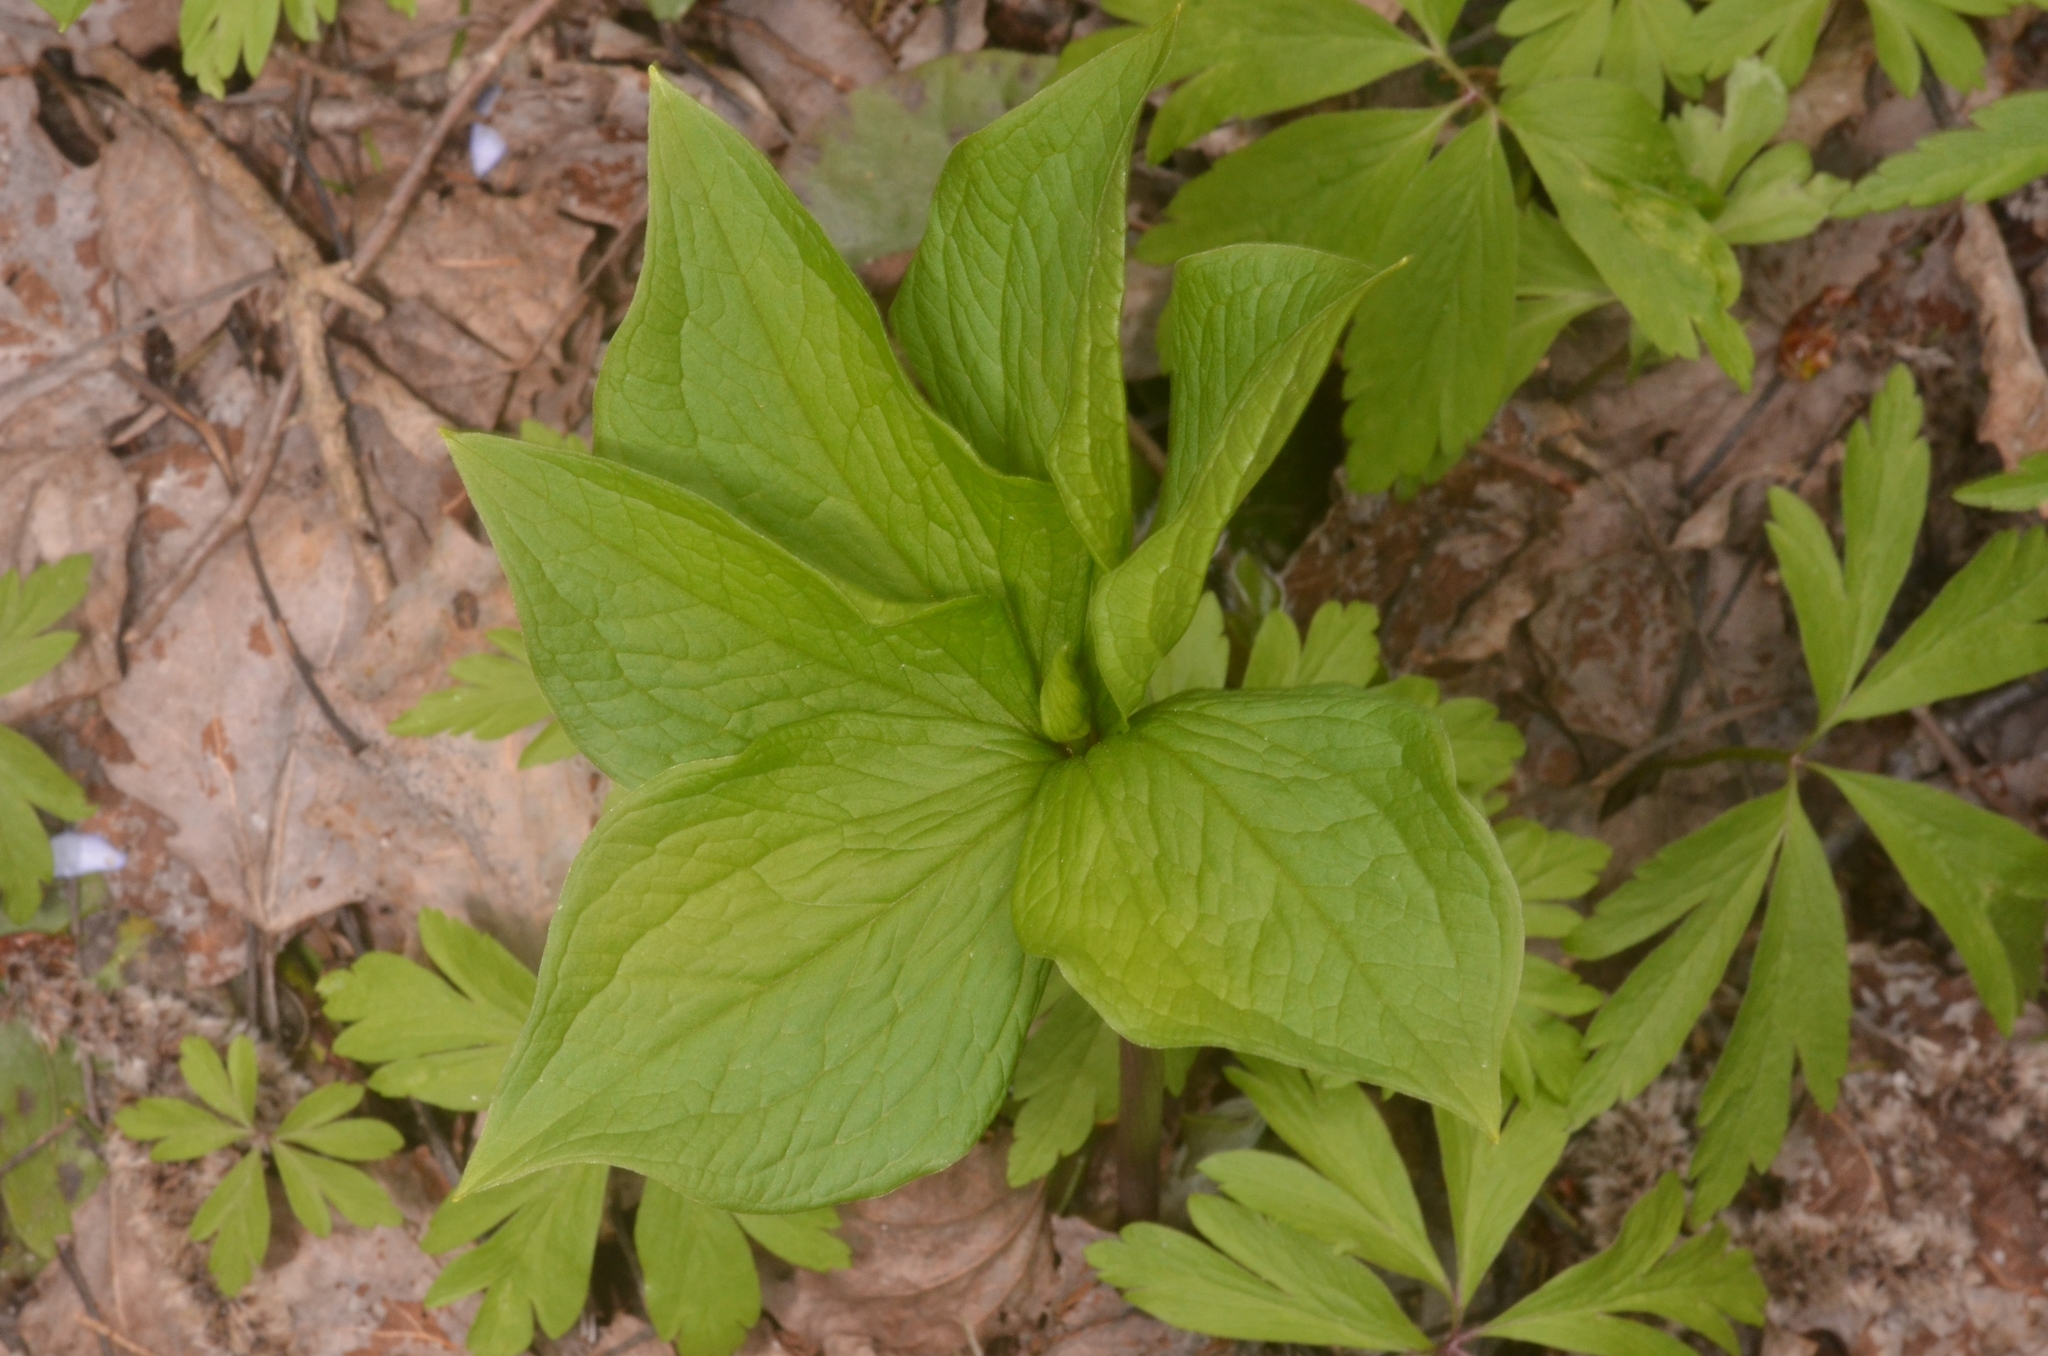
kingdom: Plantae
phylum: Tracheophyta
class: Liliopsida
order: Liliales
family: Melanthiaceae
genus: Paris
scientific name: Paris quadrifolia
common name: Herb-paris
